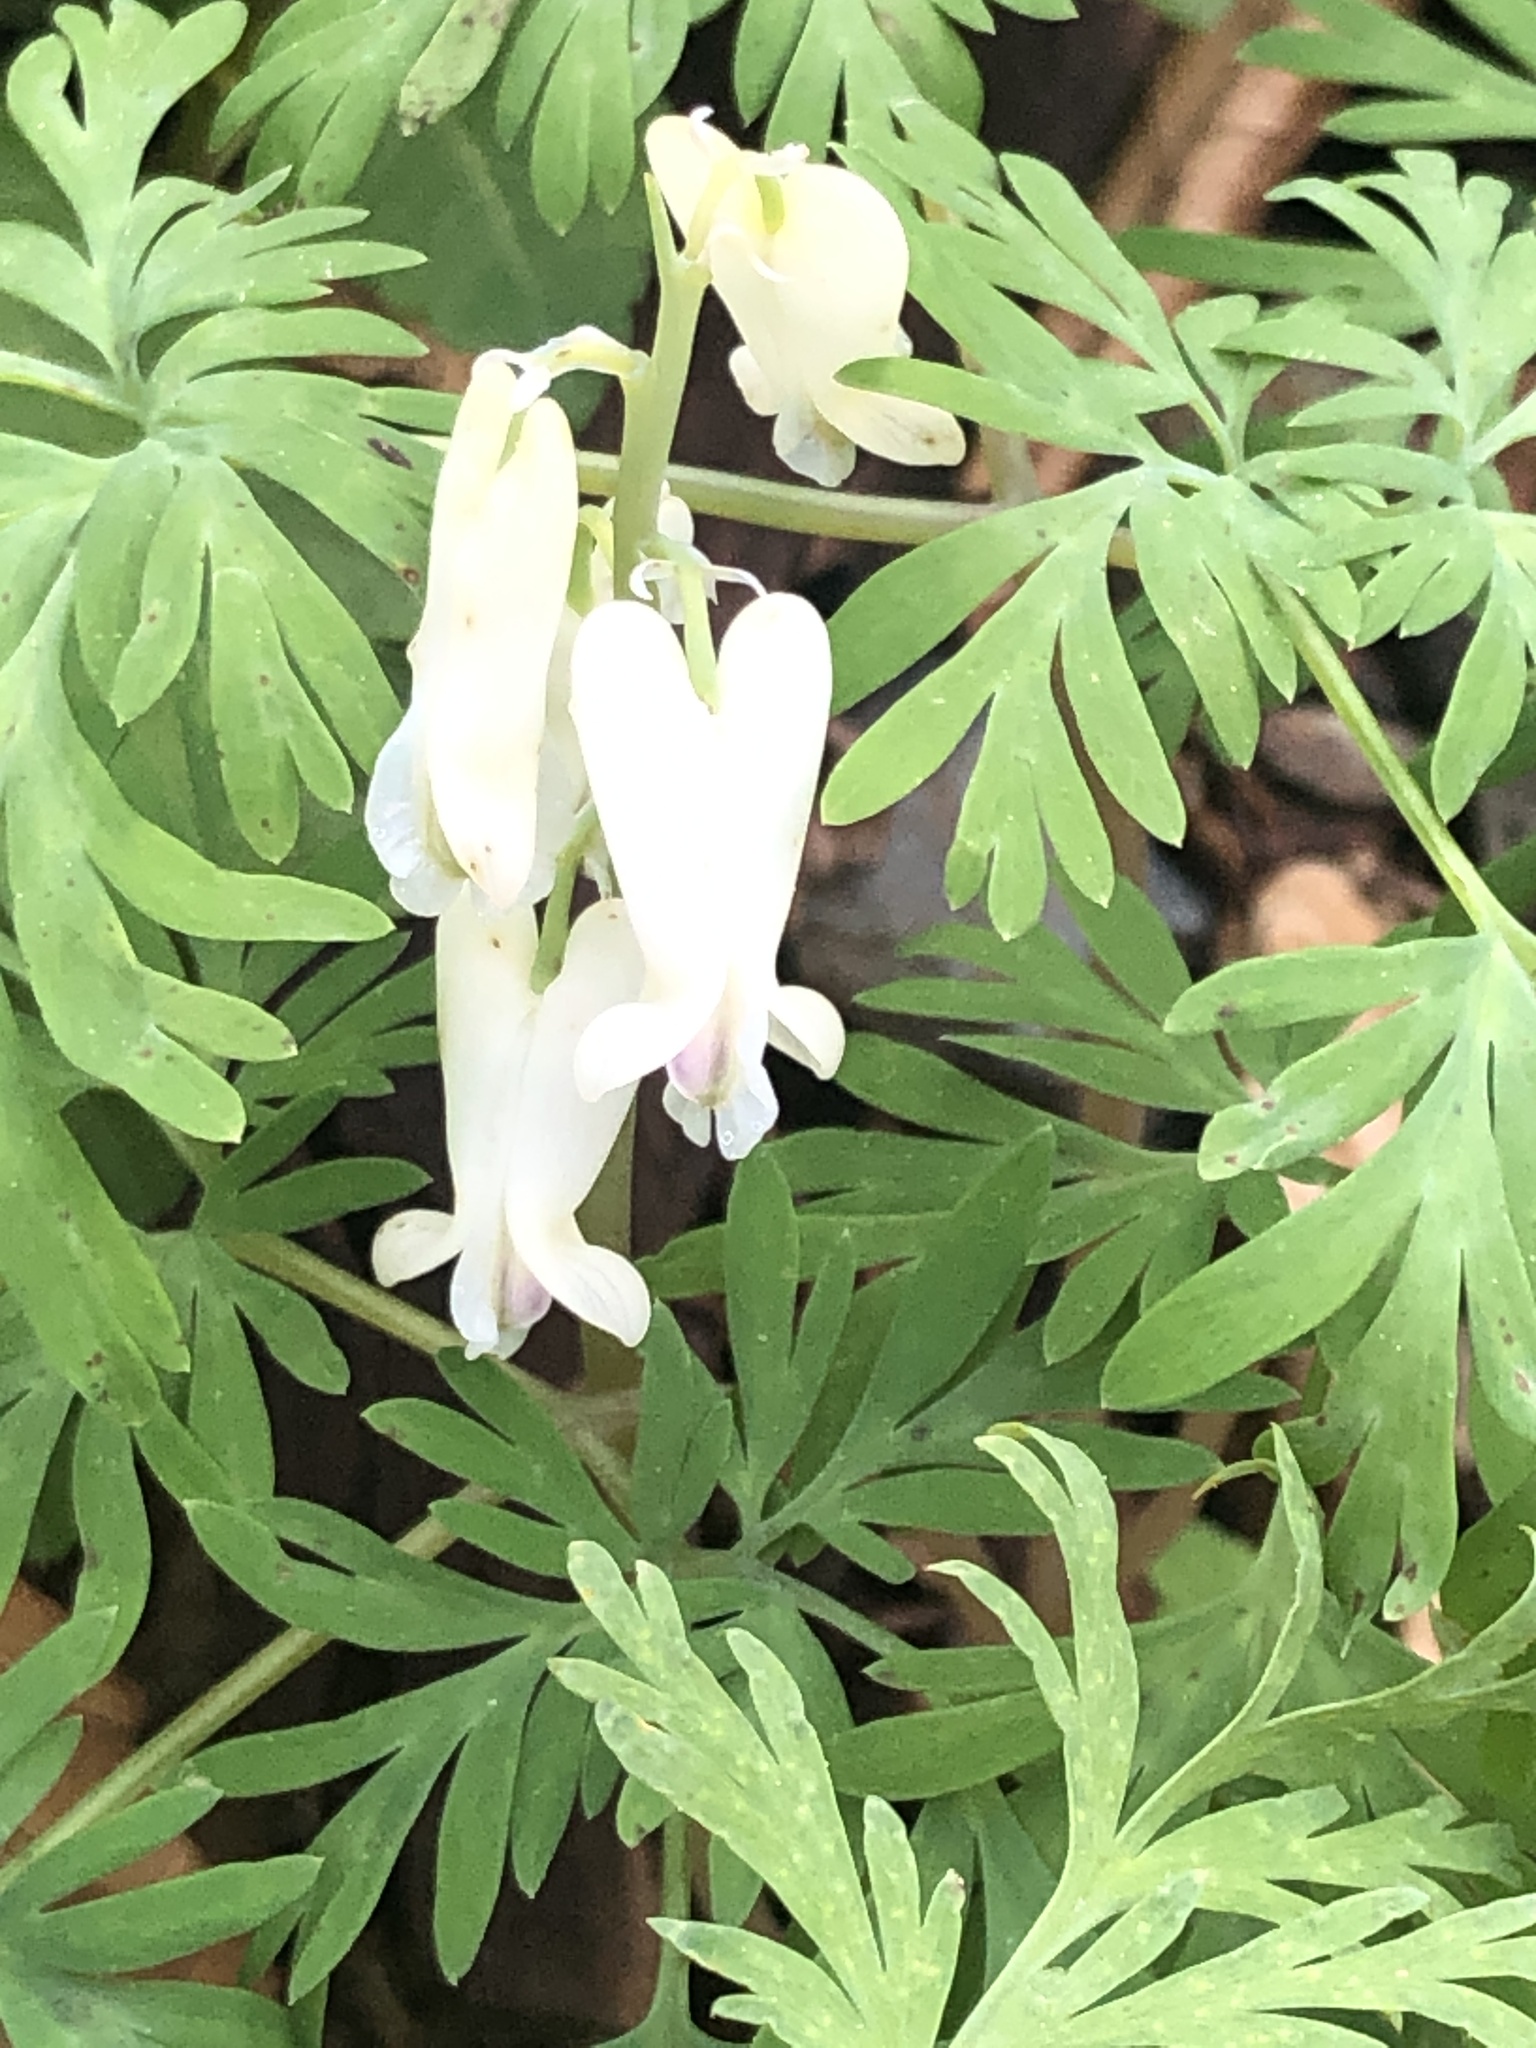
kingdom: Plantae
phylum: Tracheophyta
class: Magnoliopsida
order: Ranunculales
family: Papaveraceae
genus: Dicentra
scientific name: Dicentra canadensis
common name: Squirrel-corn
